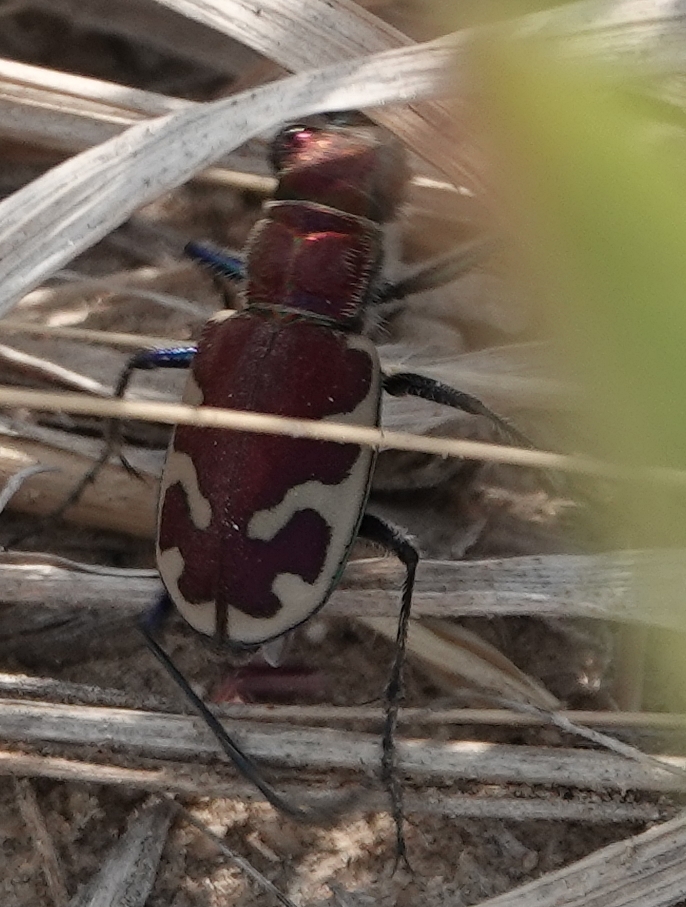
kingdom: Animalia
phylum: Arthropoda
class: Insecta
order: Coleoptera
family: Carabidae
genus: Cicindela
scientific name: Cicindela formosa
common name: Big sand tiger beetle
